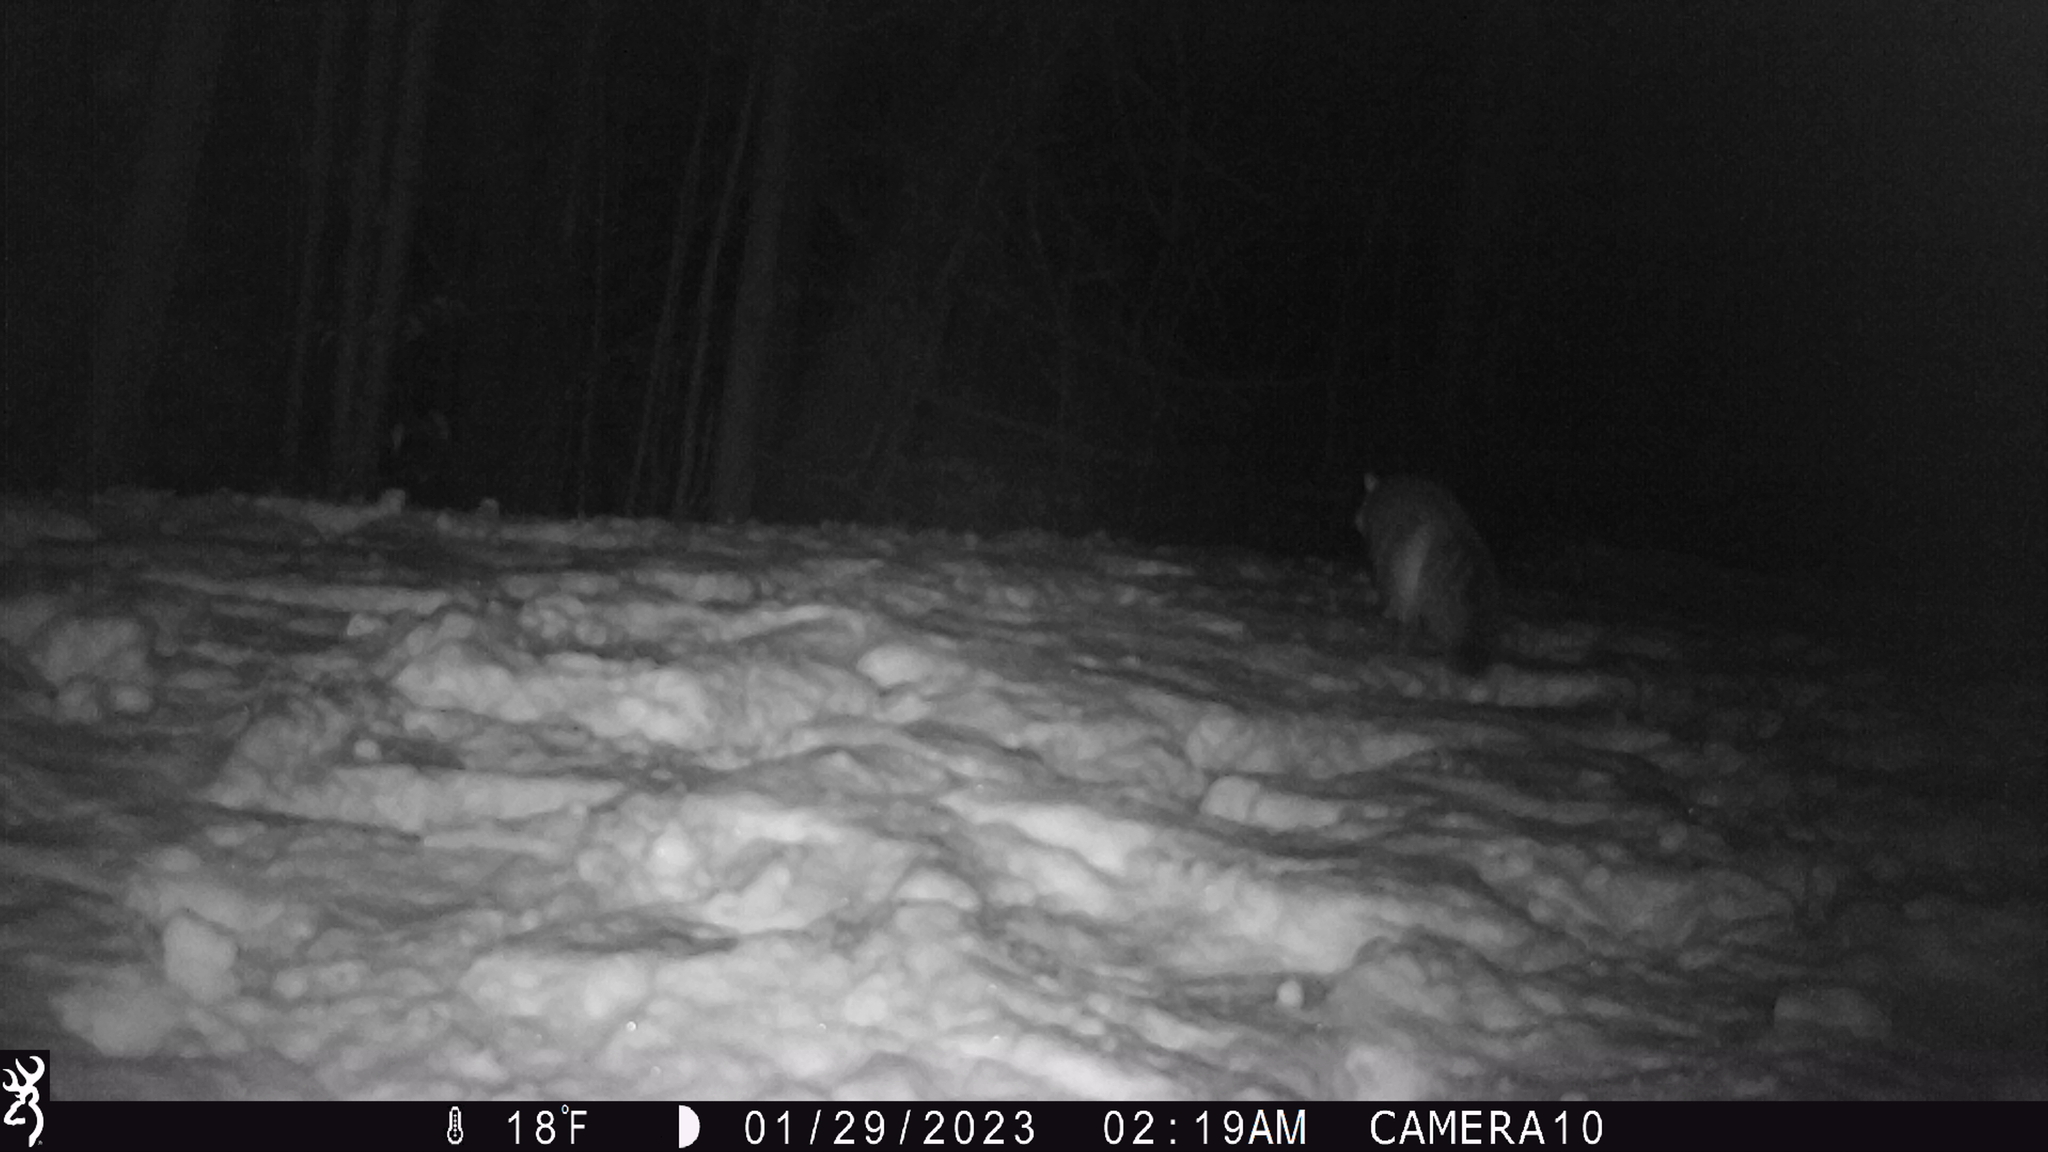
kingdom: Animalia
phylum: Chordata
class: Mammalia
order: Carnivora
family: Canidae
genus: Urocyon
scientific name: Urocyon cinereoargenteus
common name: Gray fox
